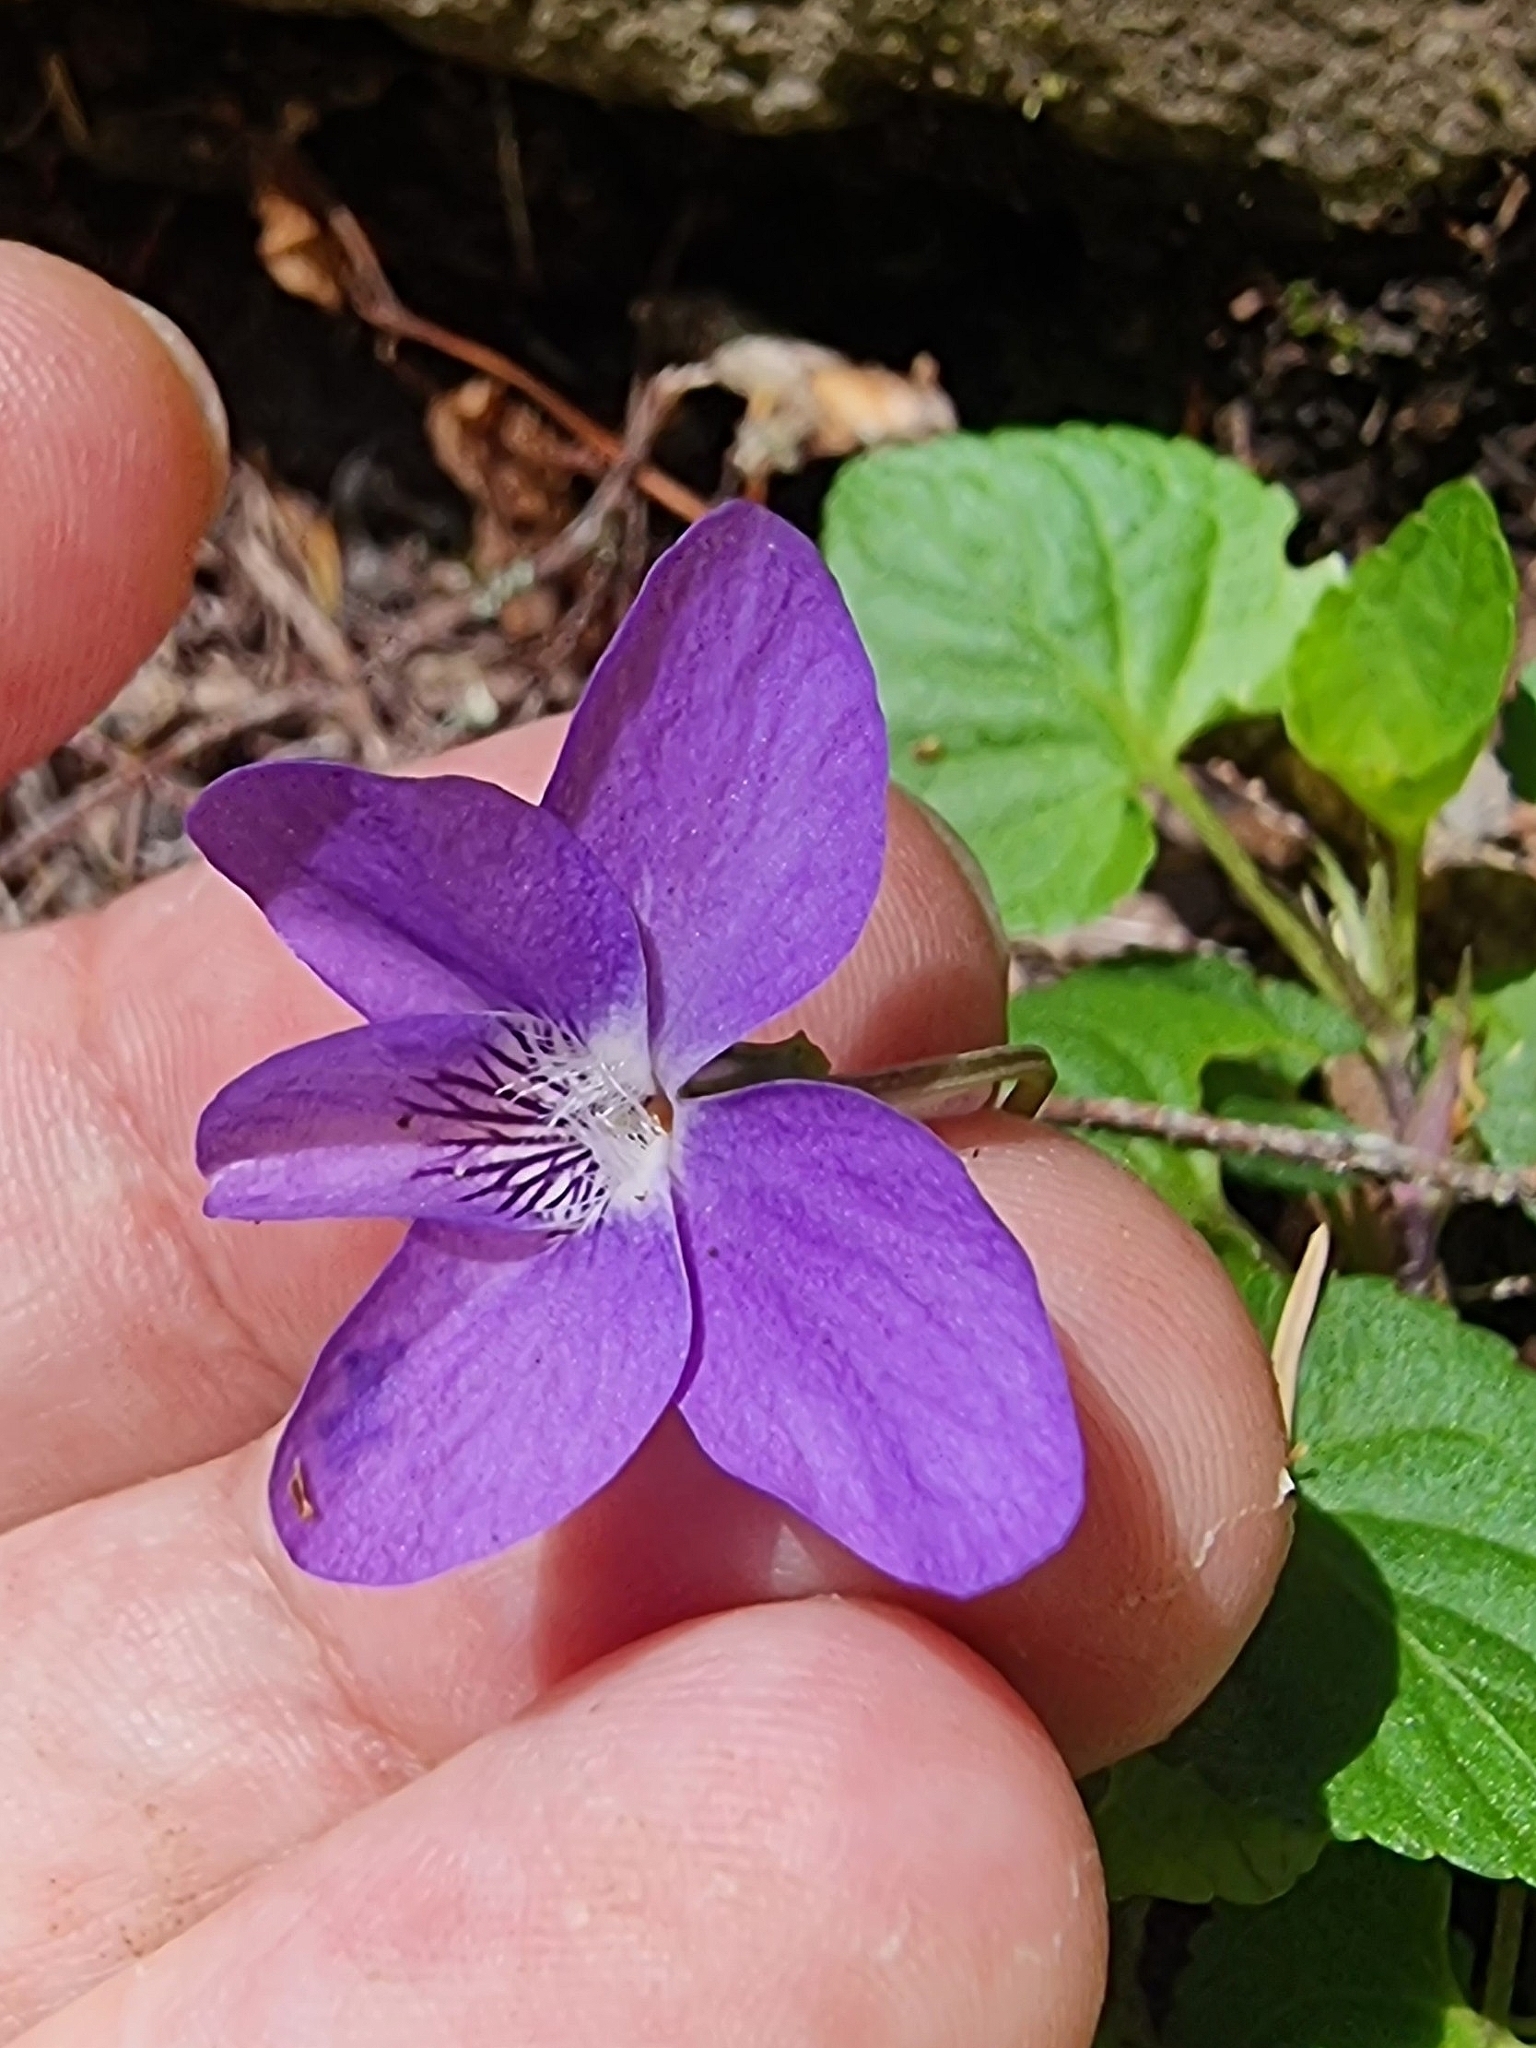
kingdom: Plantae
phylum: Tracheophyta
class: Magnoliopsida
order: Malpighiales
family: Violaceae
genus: Viola
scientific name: Viola riviniana
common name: Common dog-violet
